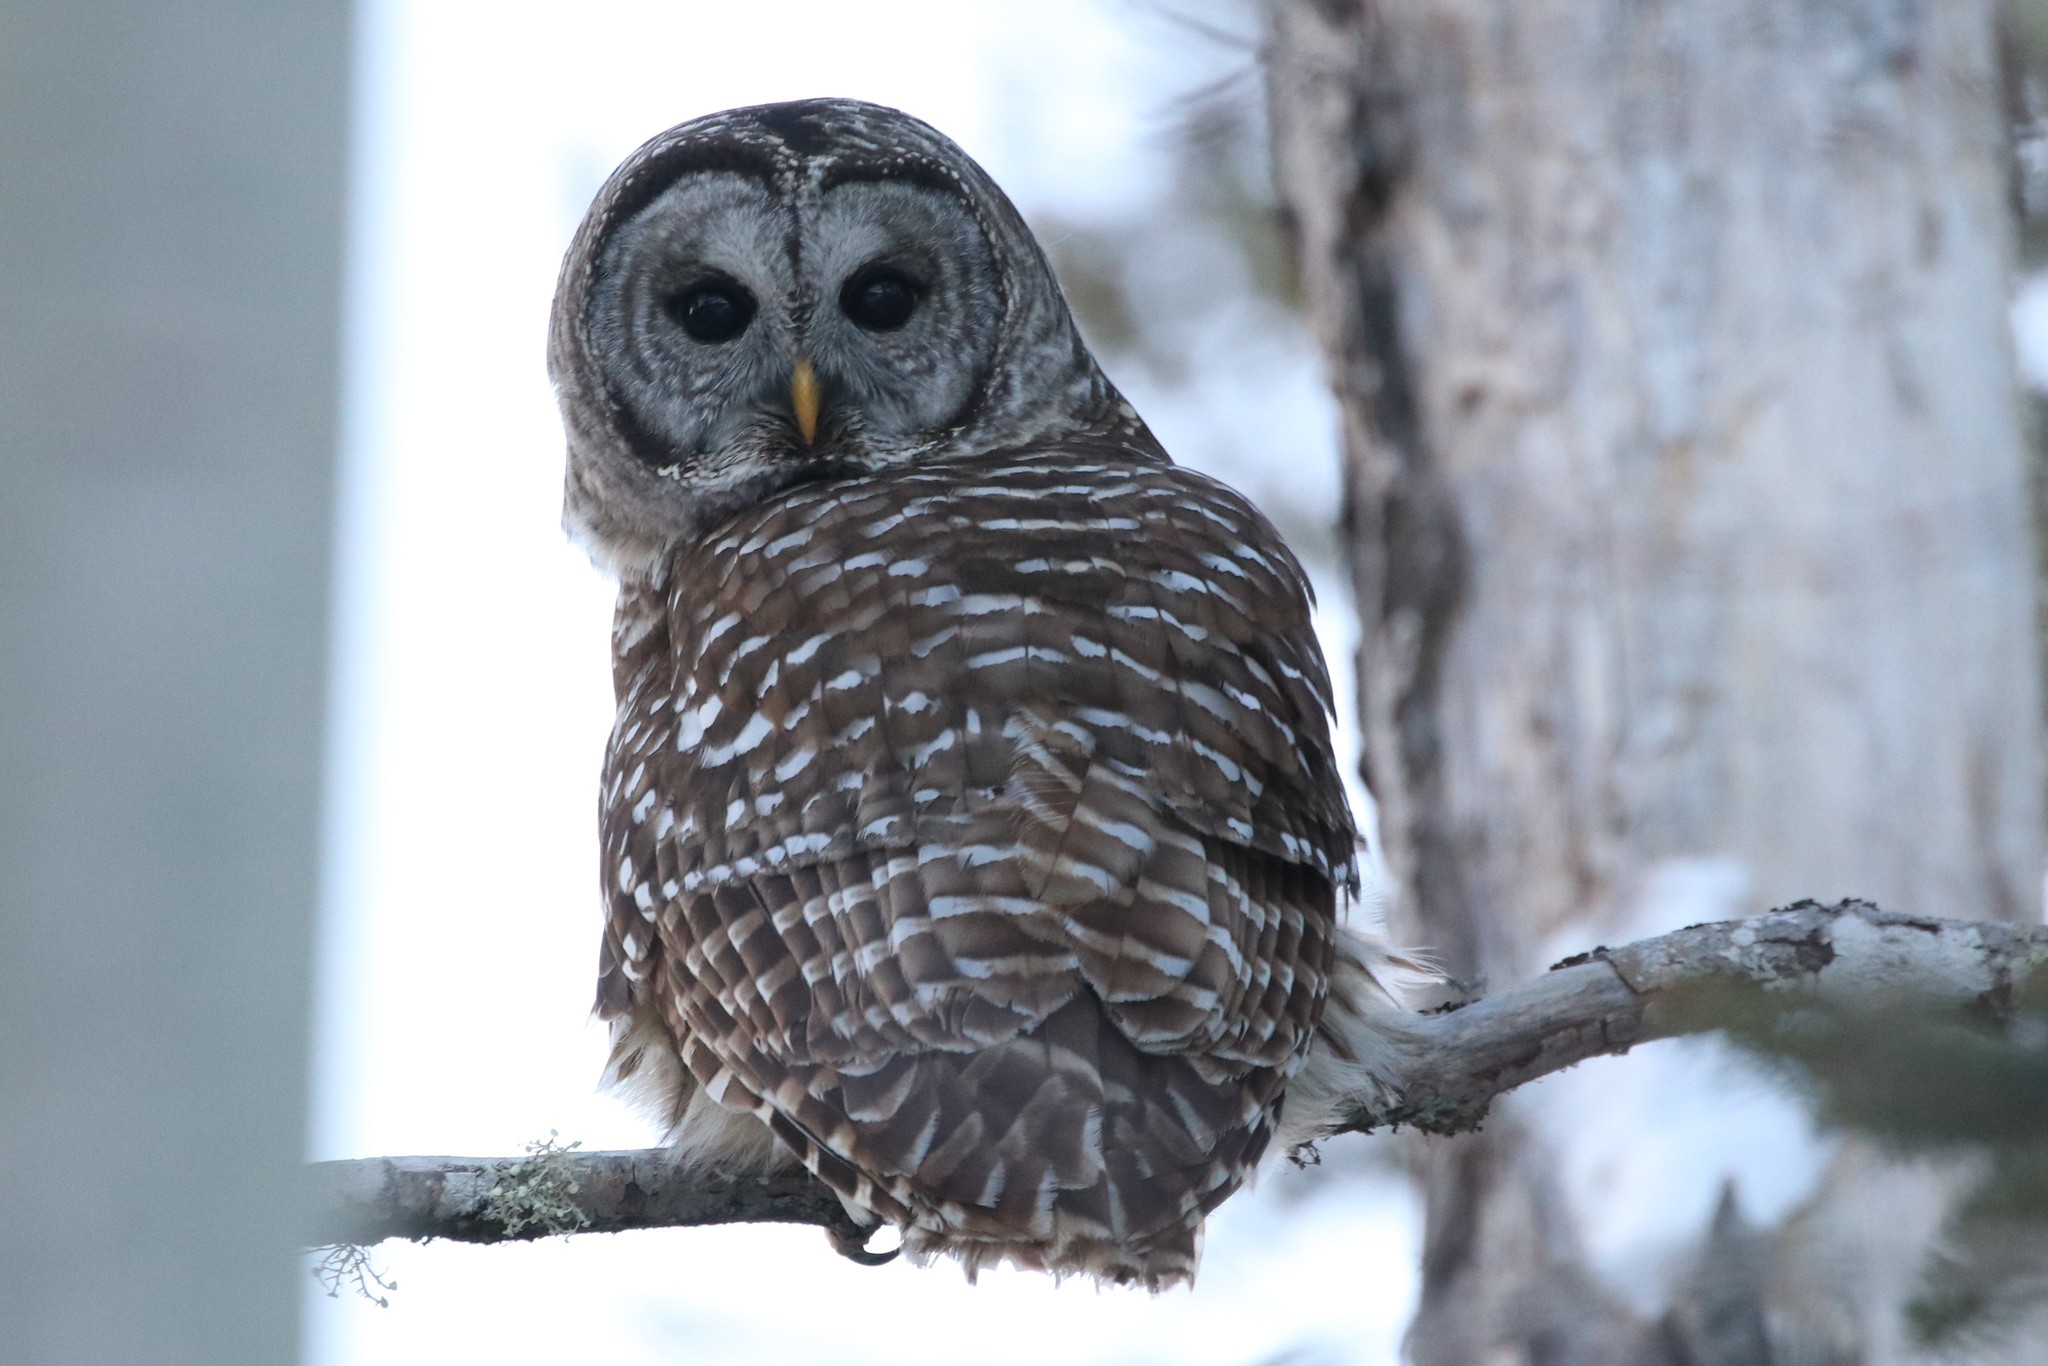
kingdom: Animalia
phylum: Chordata
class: Aves
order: Strigiformes
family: Strigidae
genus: Strix
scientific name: Strix varia
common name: Barred owl
